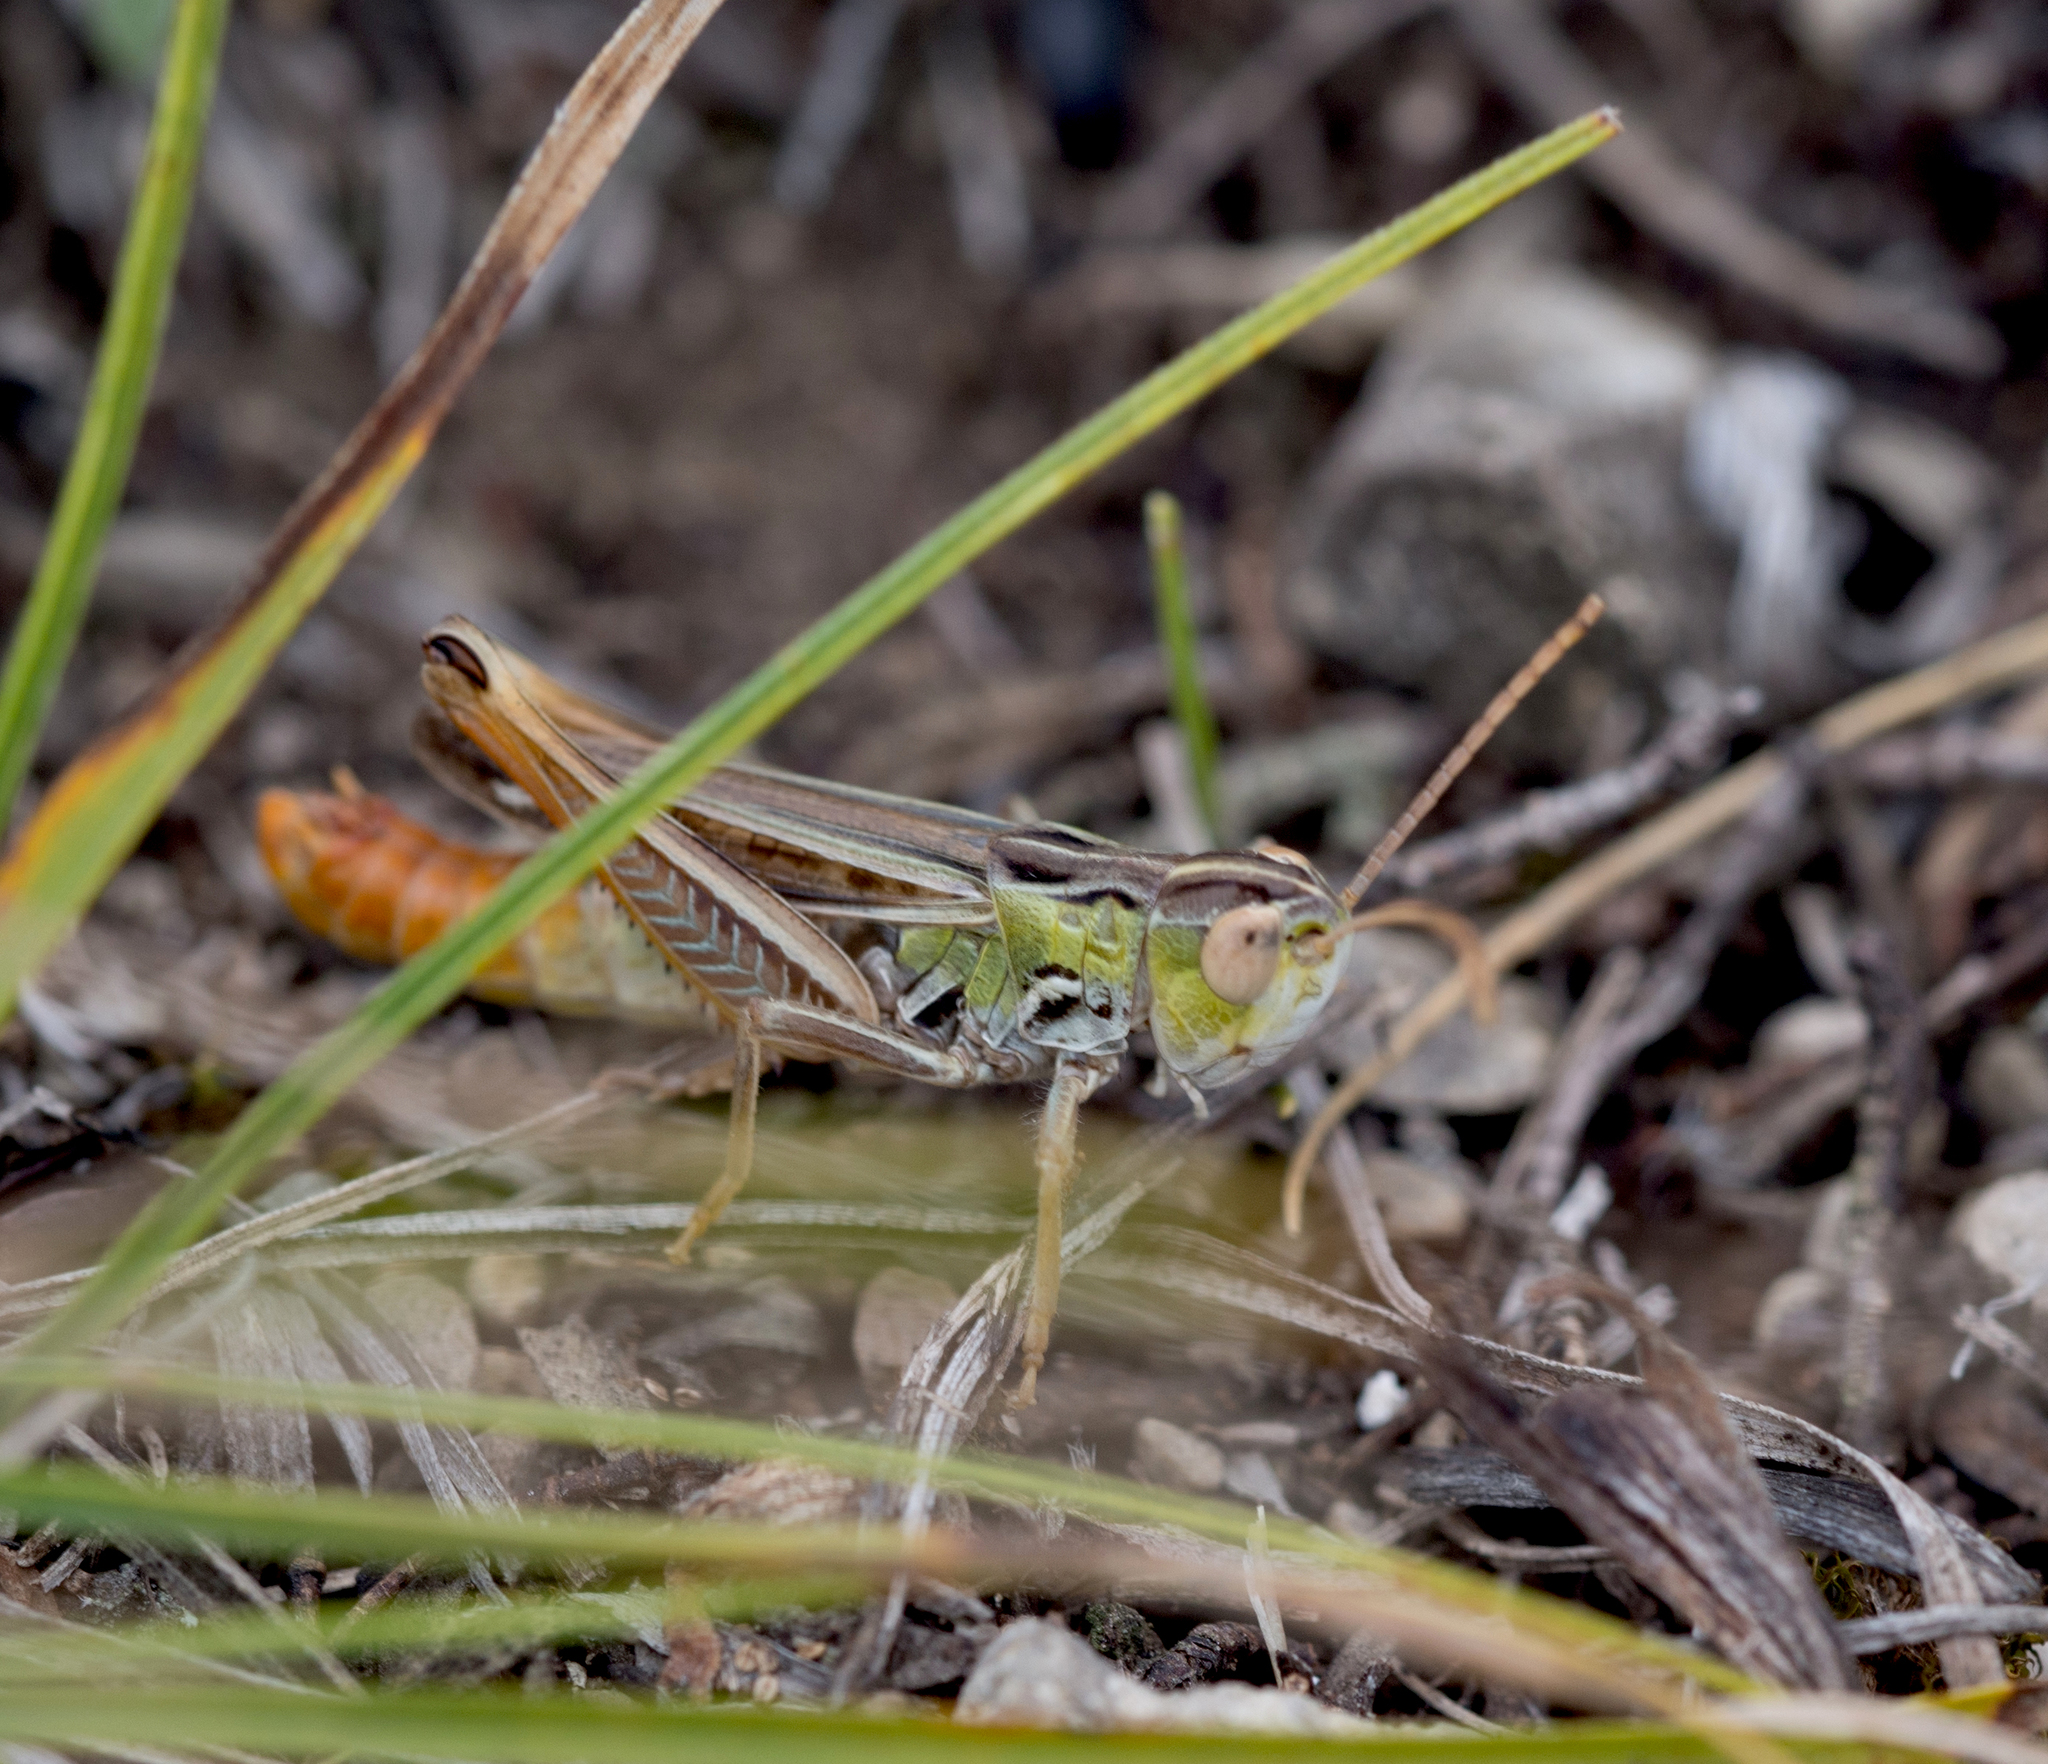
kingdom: Animalia
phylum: Arthropoda
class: Insecta
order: Orthoptera
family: Acrididae
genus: Stenobothrus
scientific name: Stenobothrus nigromaculatus
